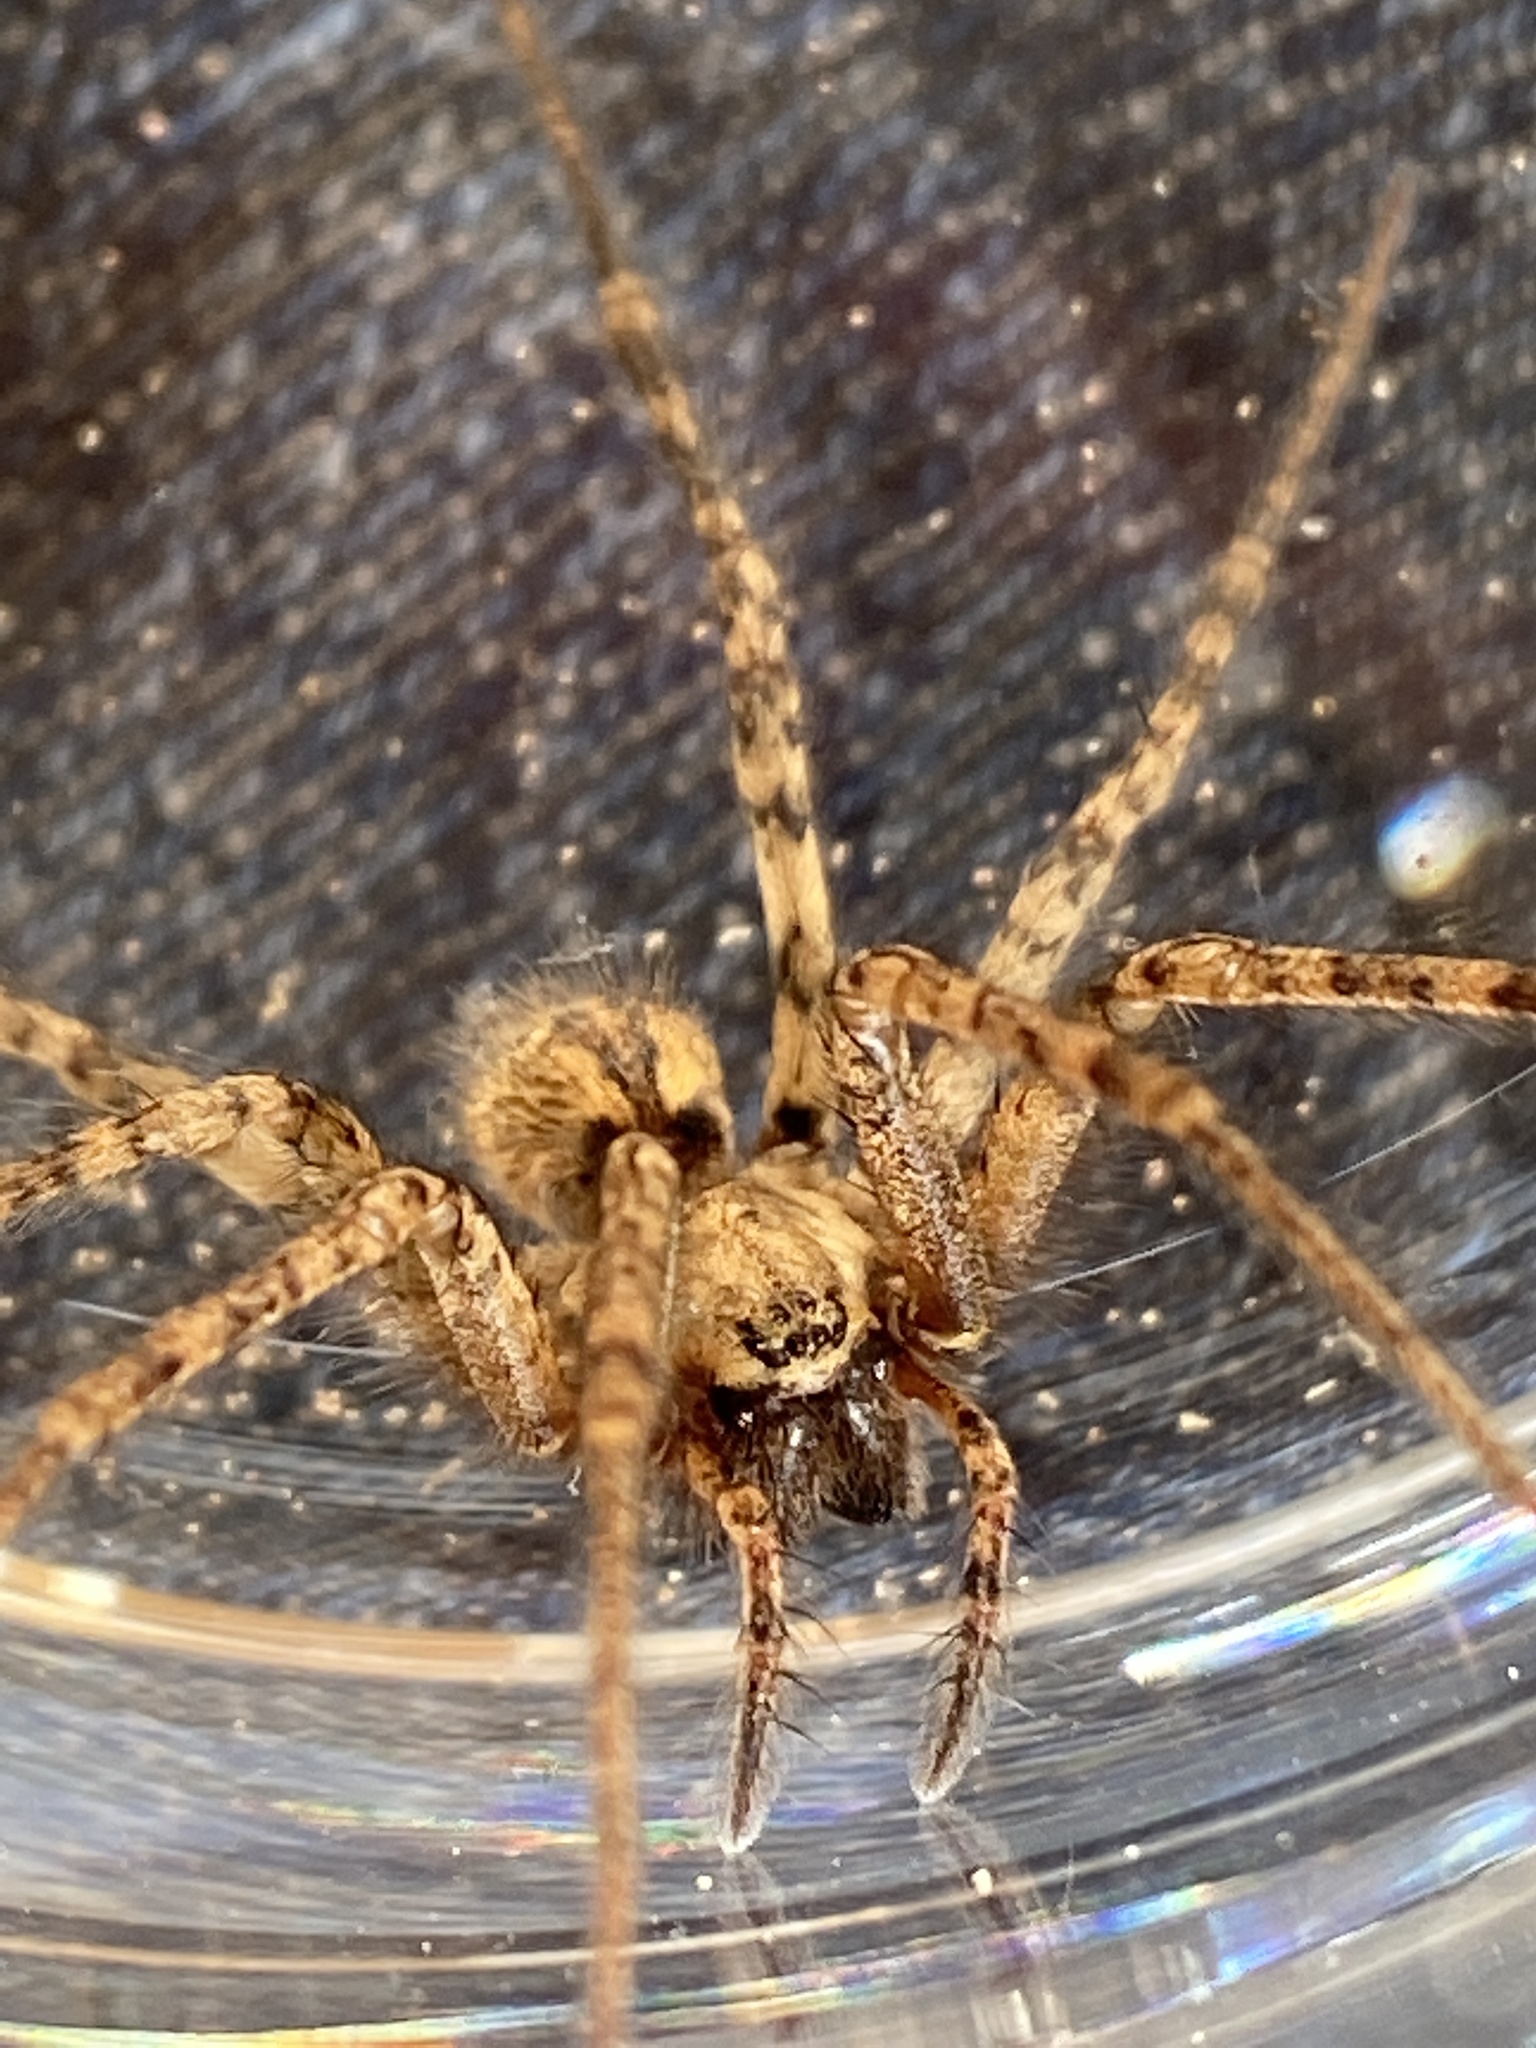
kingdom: Animalia
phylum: Arthropoda
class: Arachnida
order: Araneae
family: Agelenidae
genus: Tegenaria
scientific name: Tegenaria ferruginea
